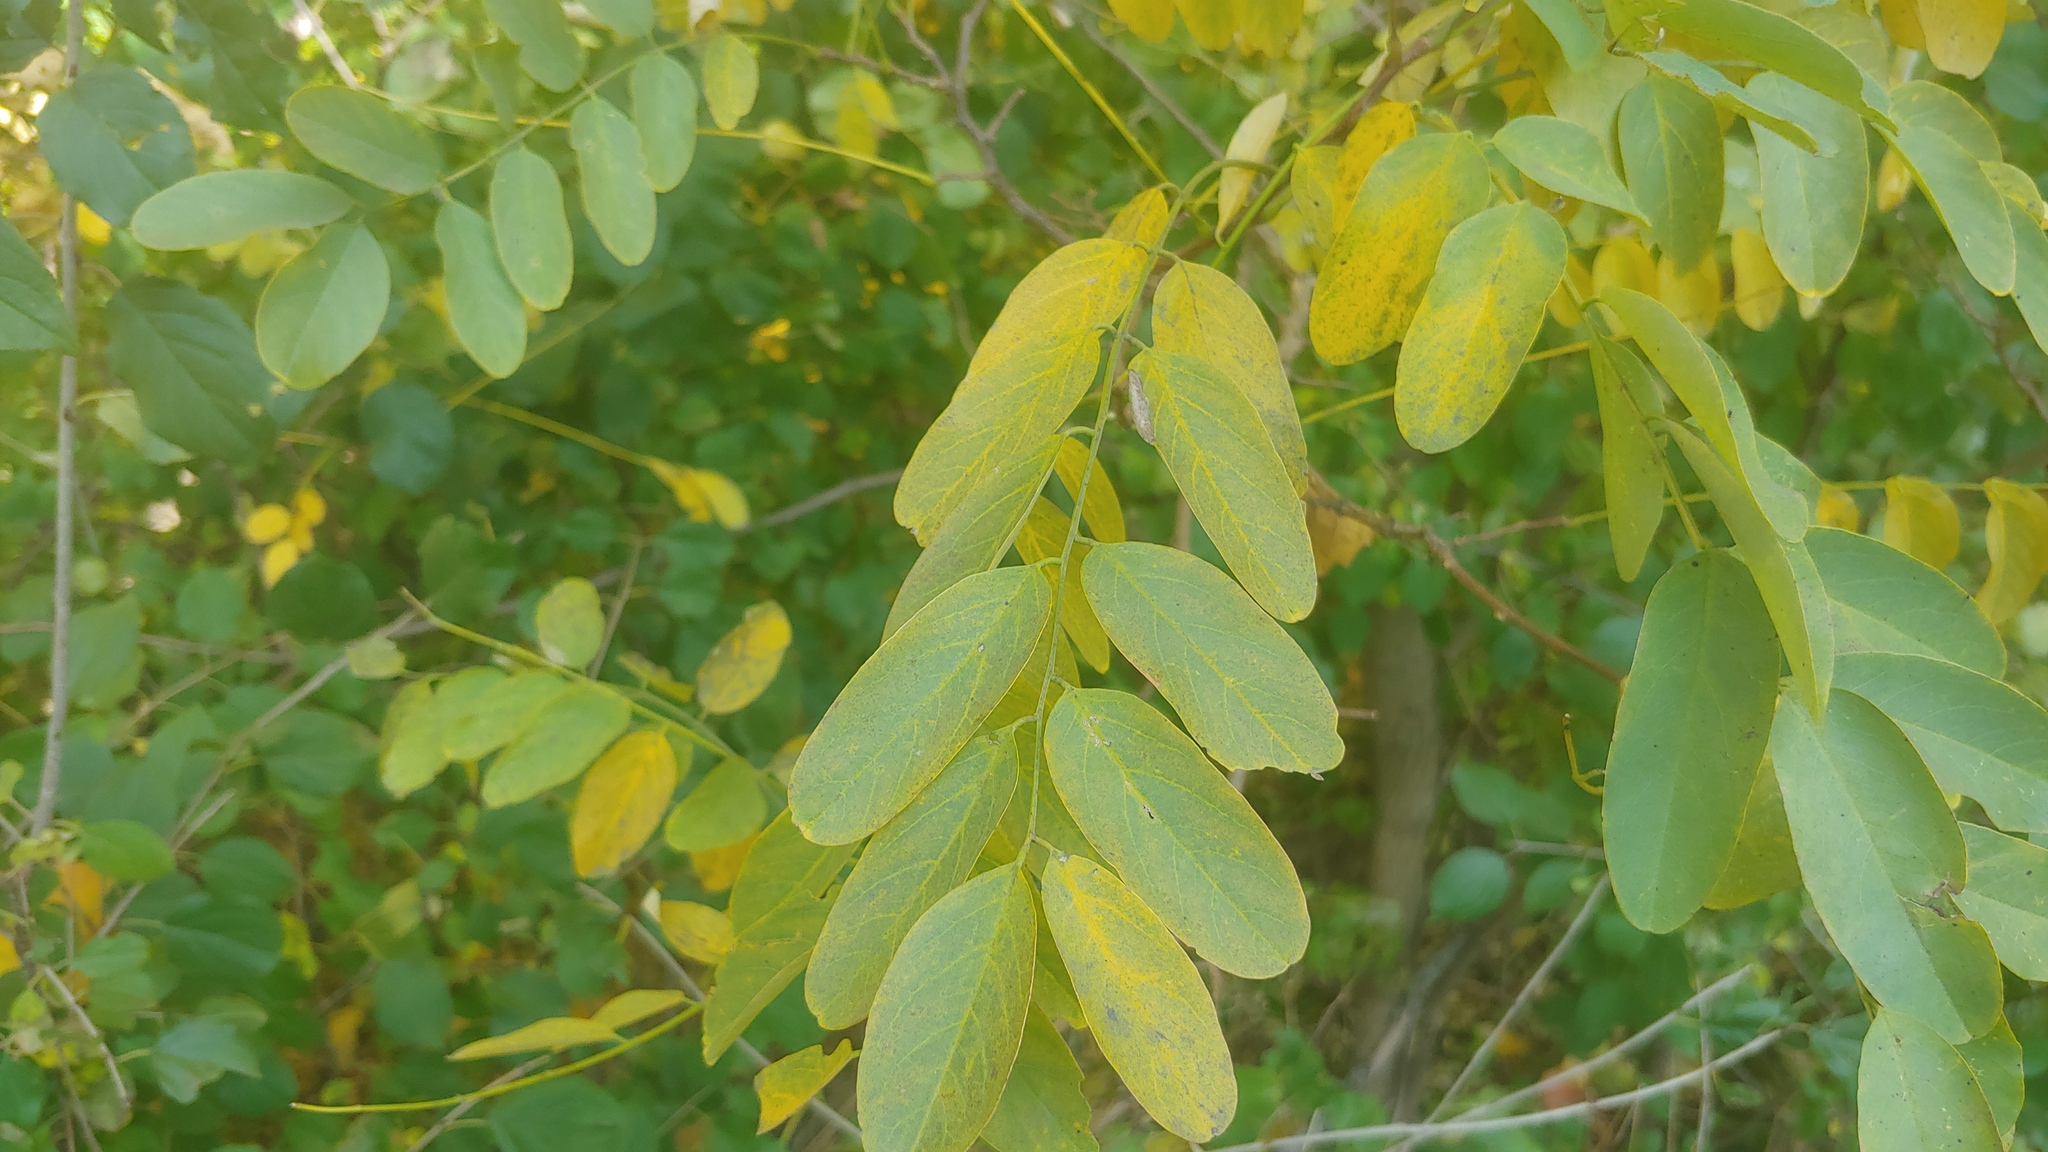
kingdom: Plantae
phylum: Tracheophyta
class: Magnoliopsida
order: Fabales
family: Fabaceae
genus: Robinia
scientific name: Robinia pseudoacacia
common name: Black locust
